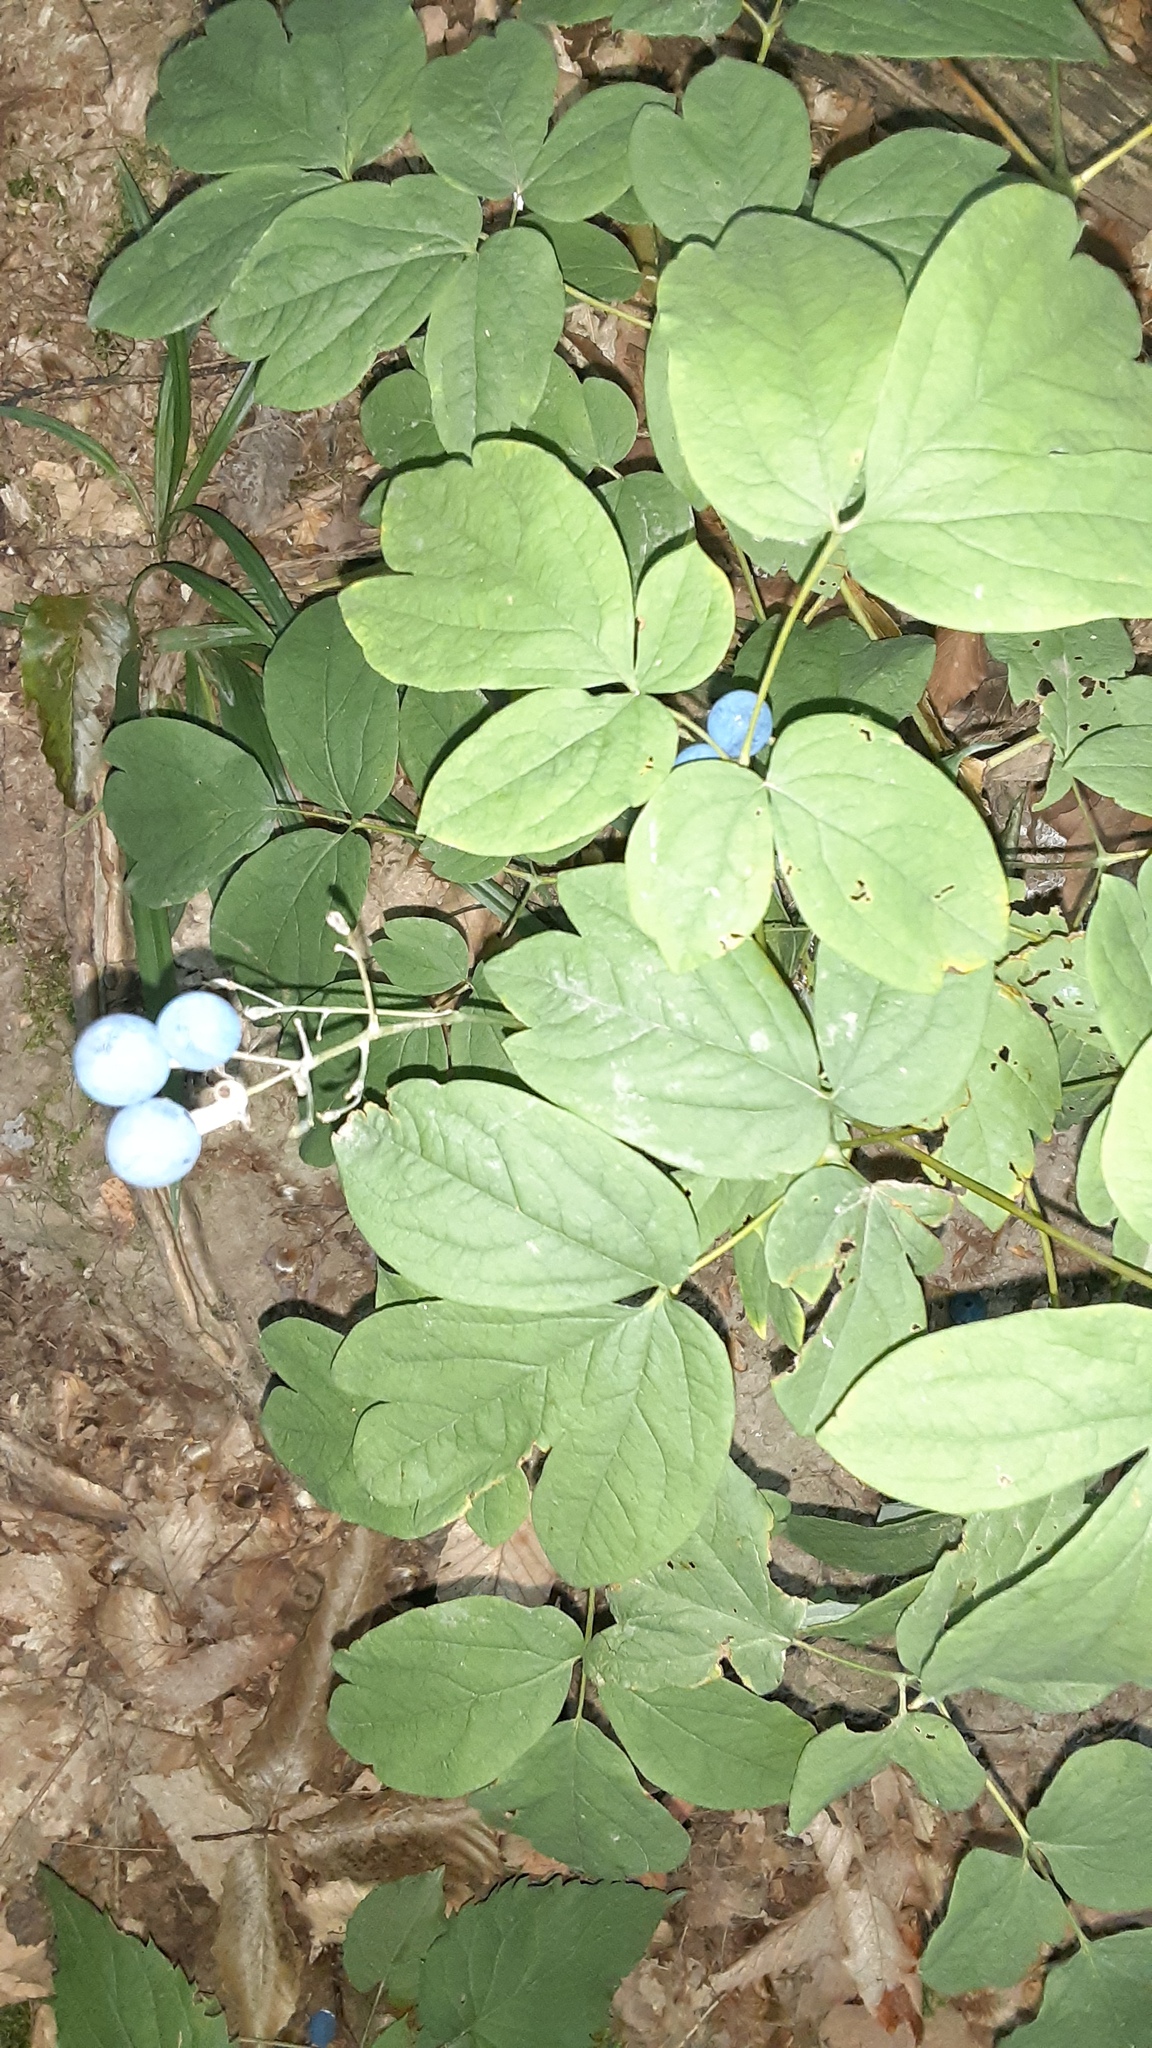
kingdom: Plantae
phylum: Tracheophyta
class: Magnoliopsida
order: Ranunculales
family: Berberidaceae
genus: Caulophyllum
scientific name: Caulophyllum thalictroides
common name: Blue cohosh
